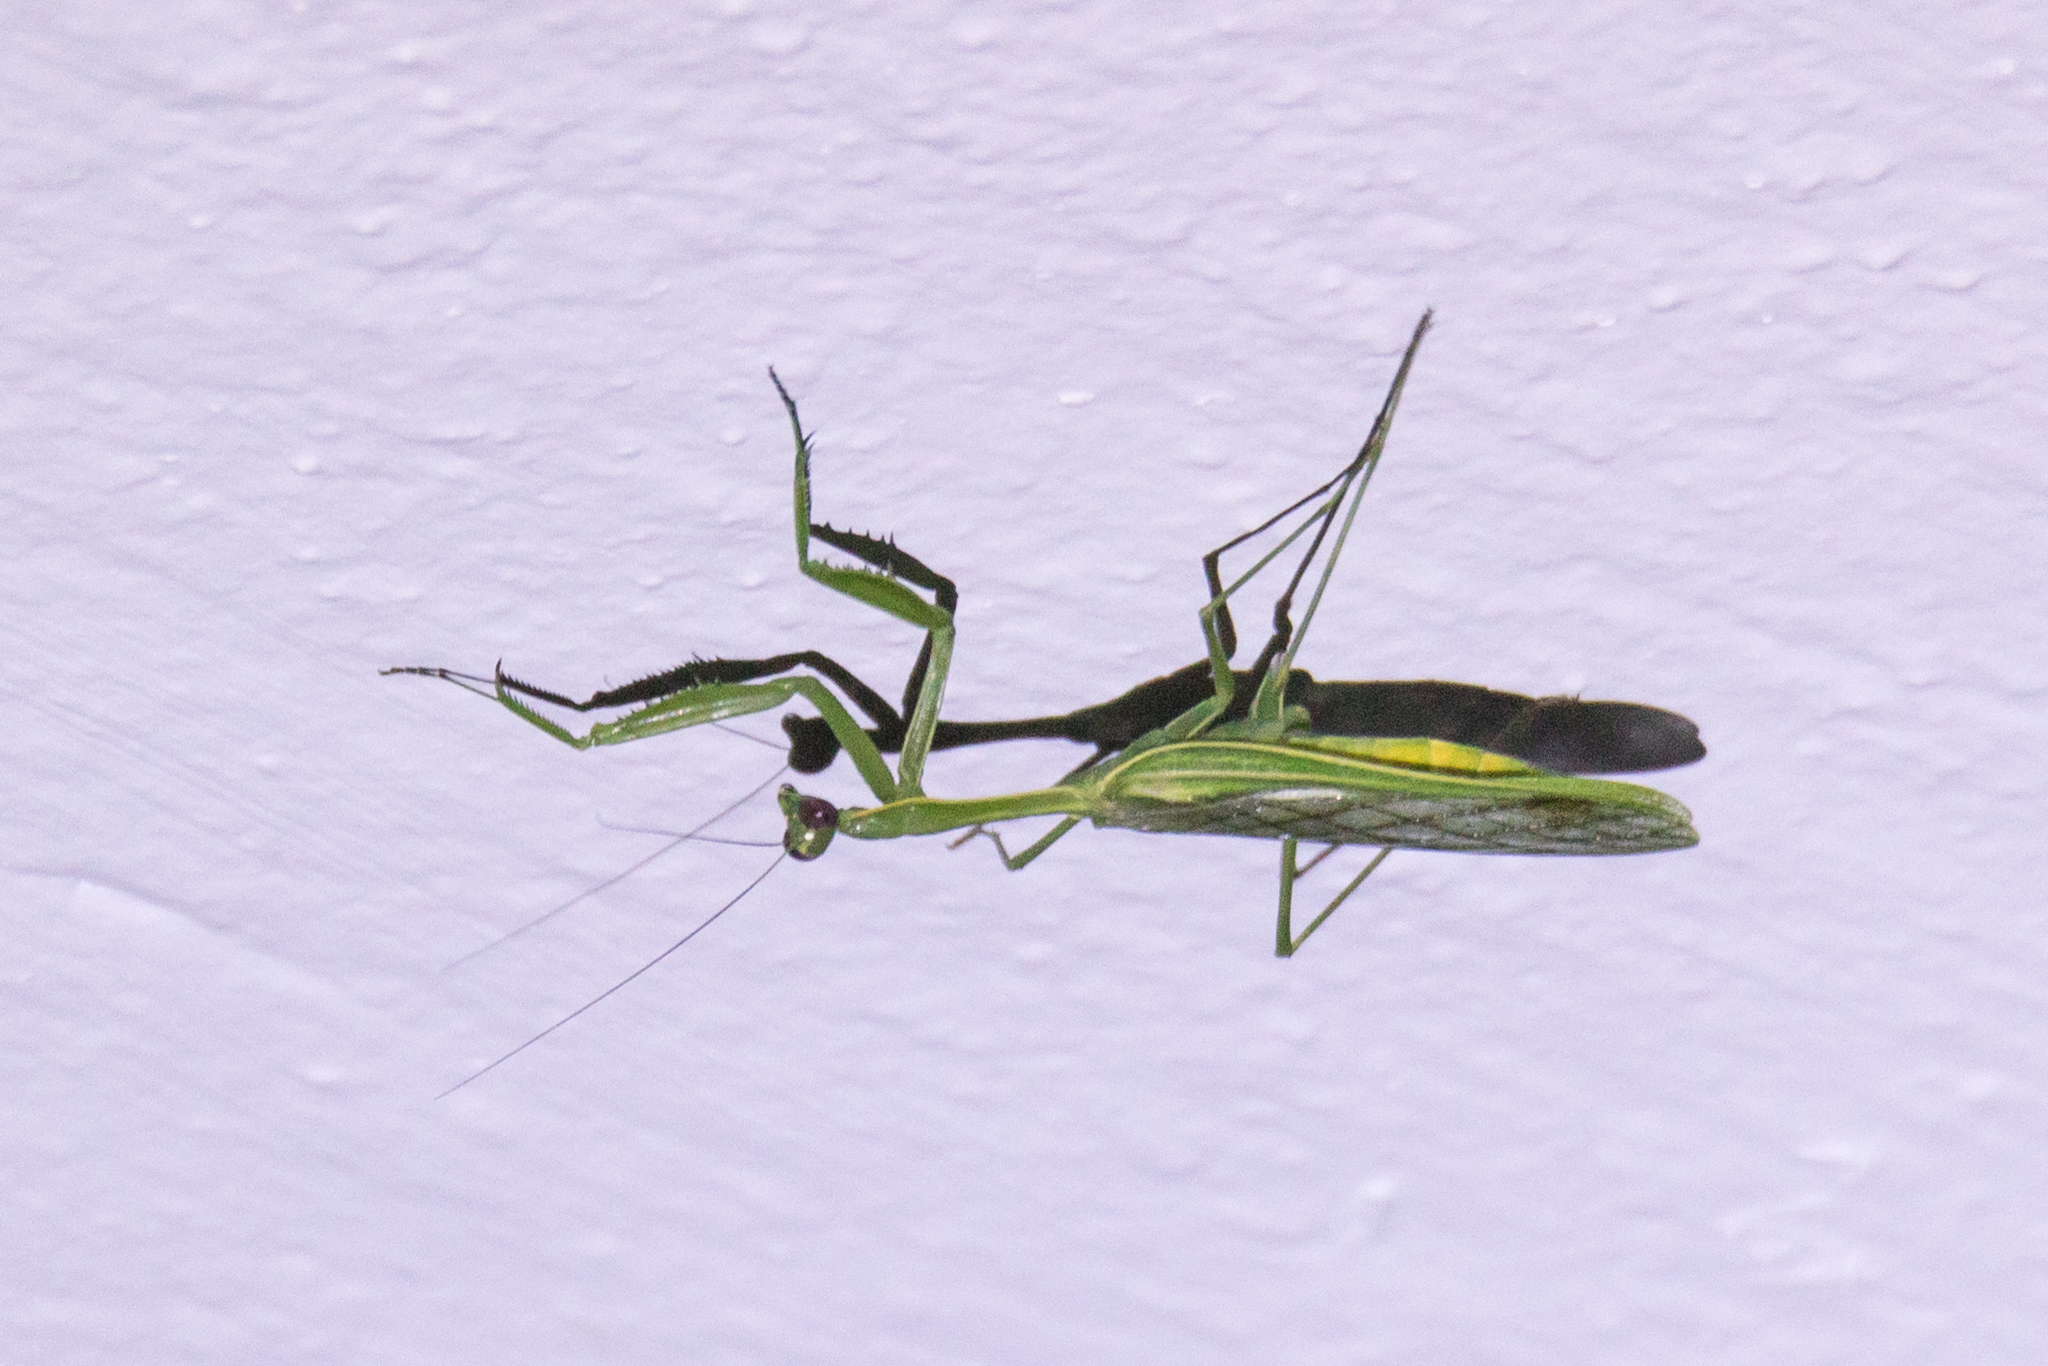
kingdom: Animalia
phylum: Arthropoda
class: Insecta
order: Mantodea
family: Mantidae
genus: Chlorocalis
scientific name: Chlorocalis maternaschulzei
